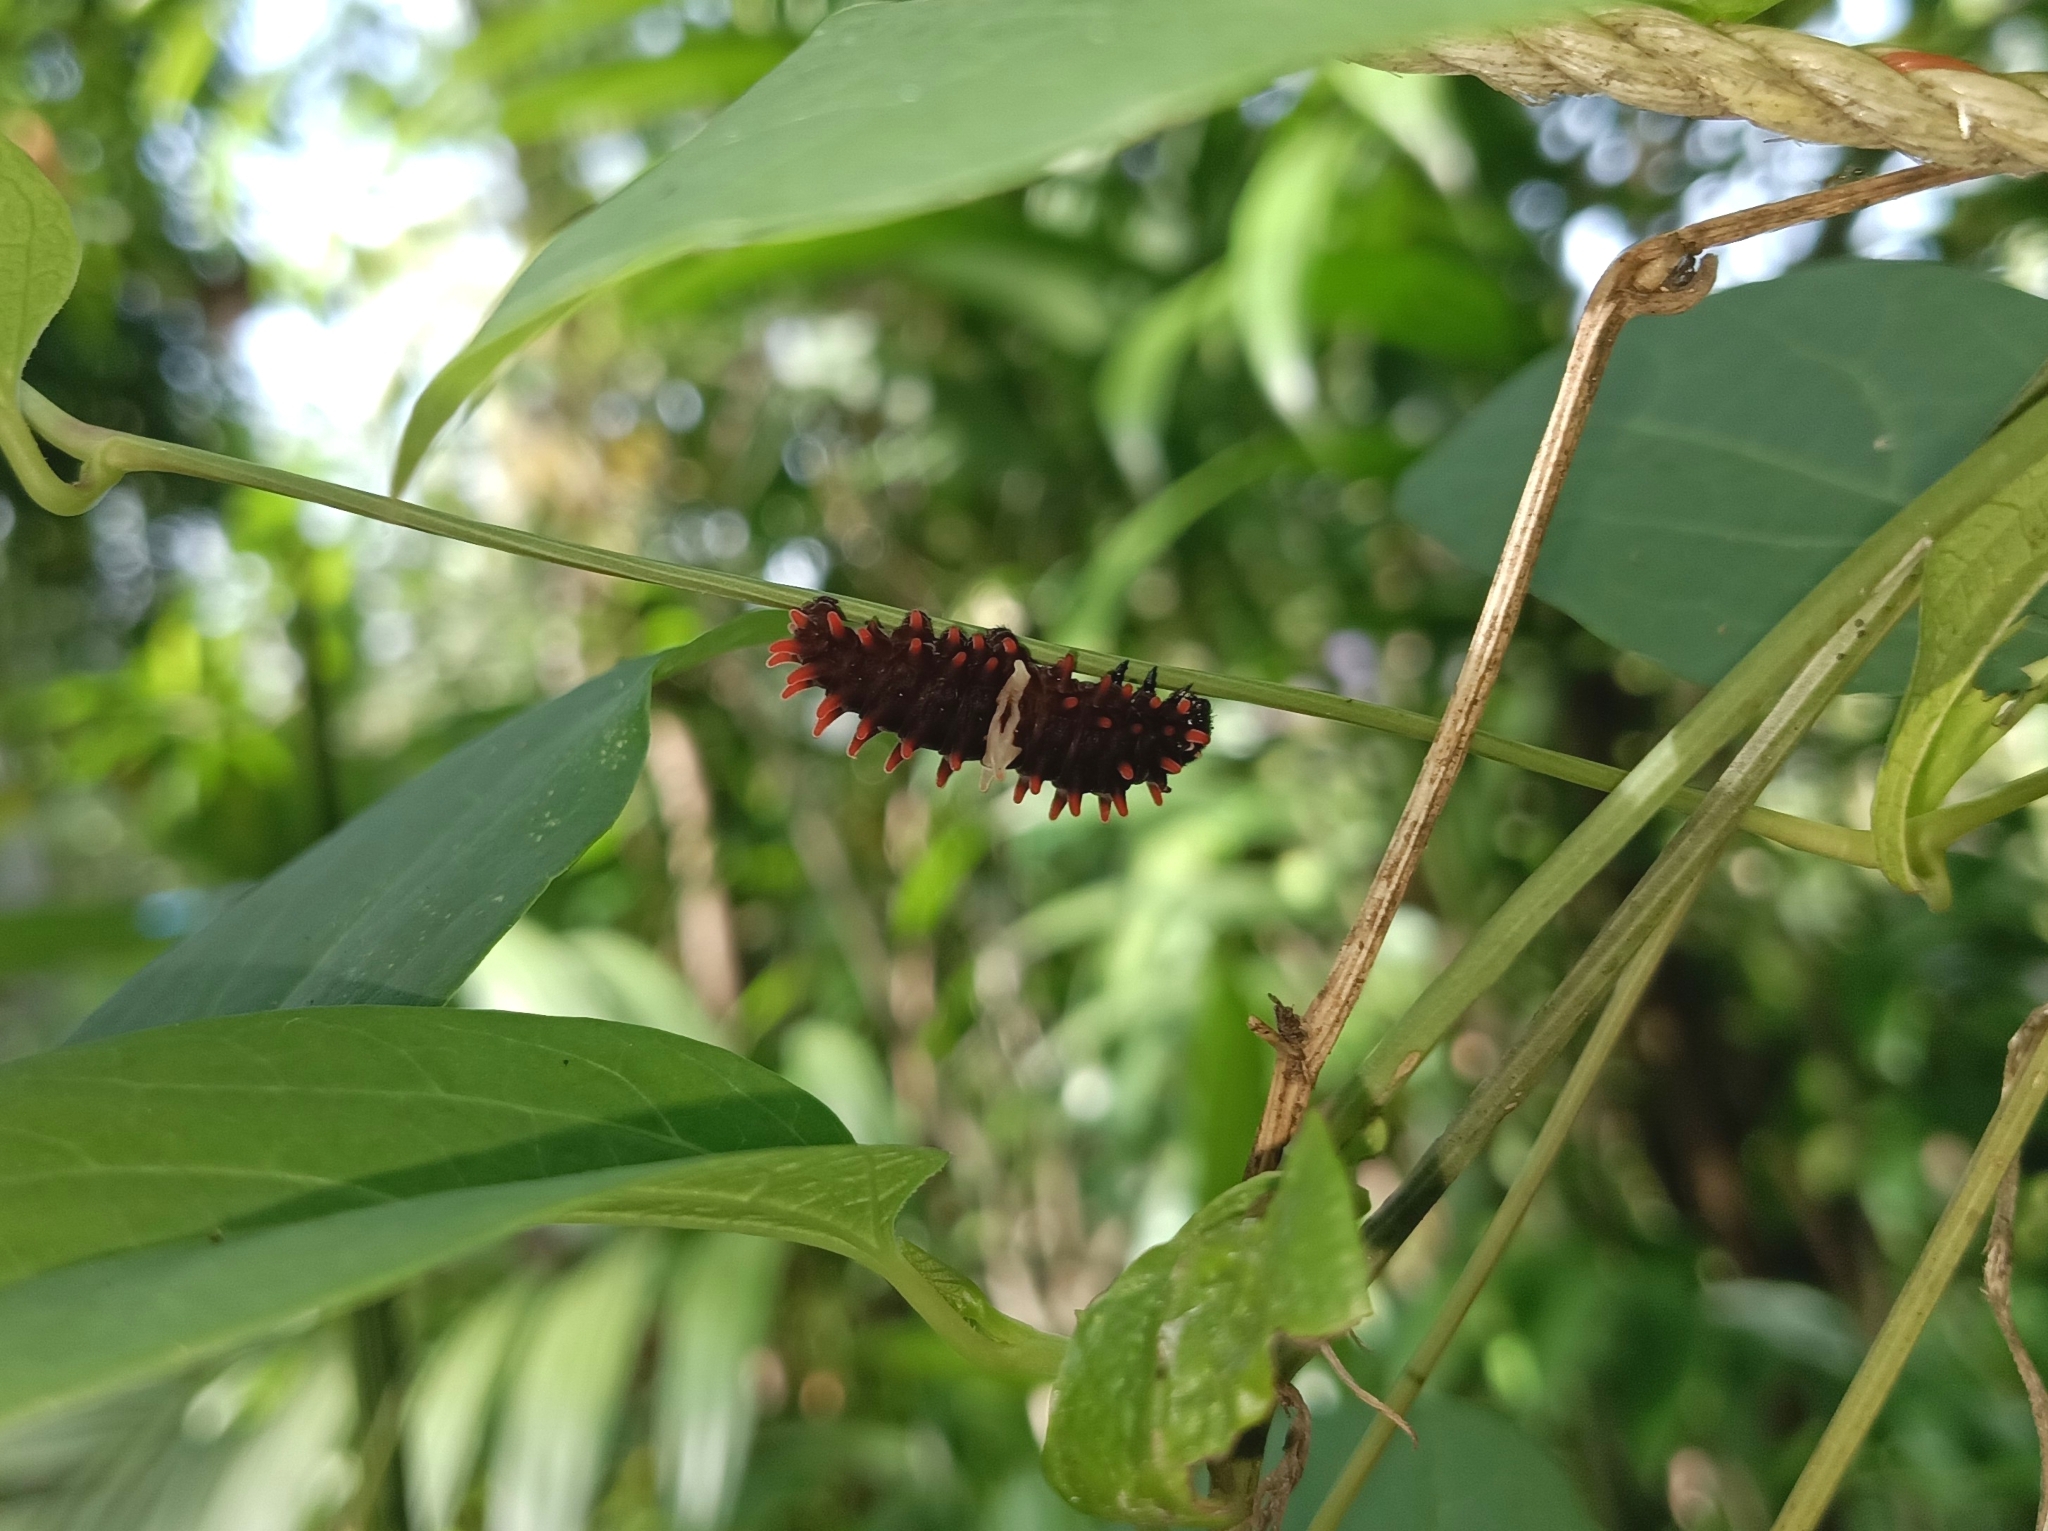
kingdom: Animalia
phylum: Arthropoda
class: Insecta
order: Lepidoptera
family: Papilionidae
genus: Pachliopta
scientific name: Pachliopta aristolochiae
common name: Common rose
